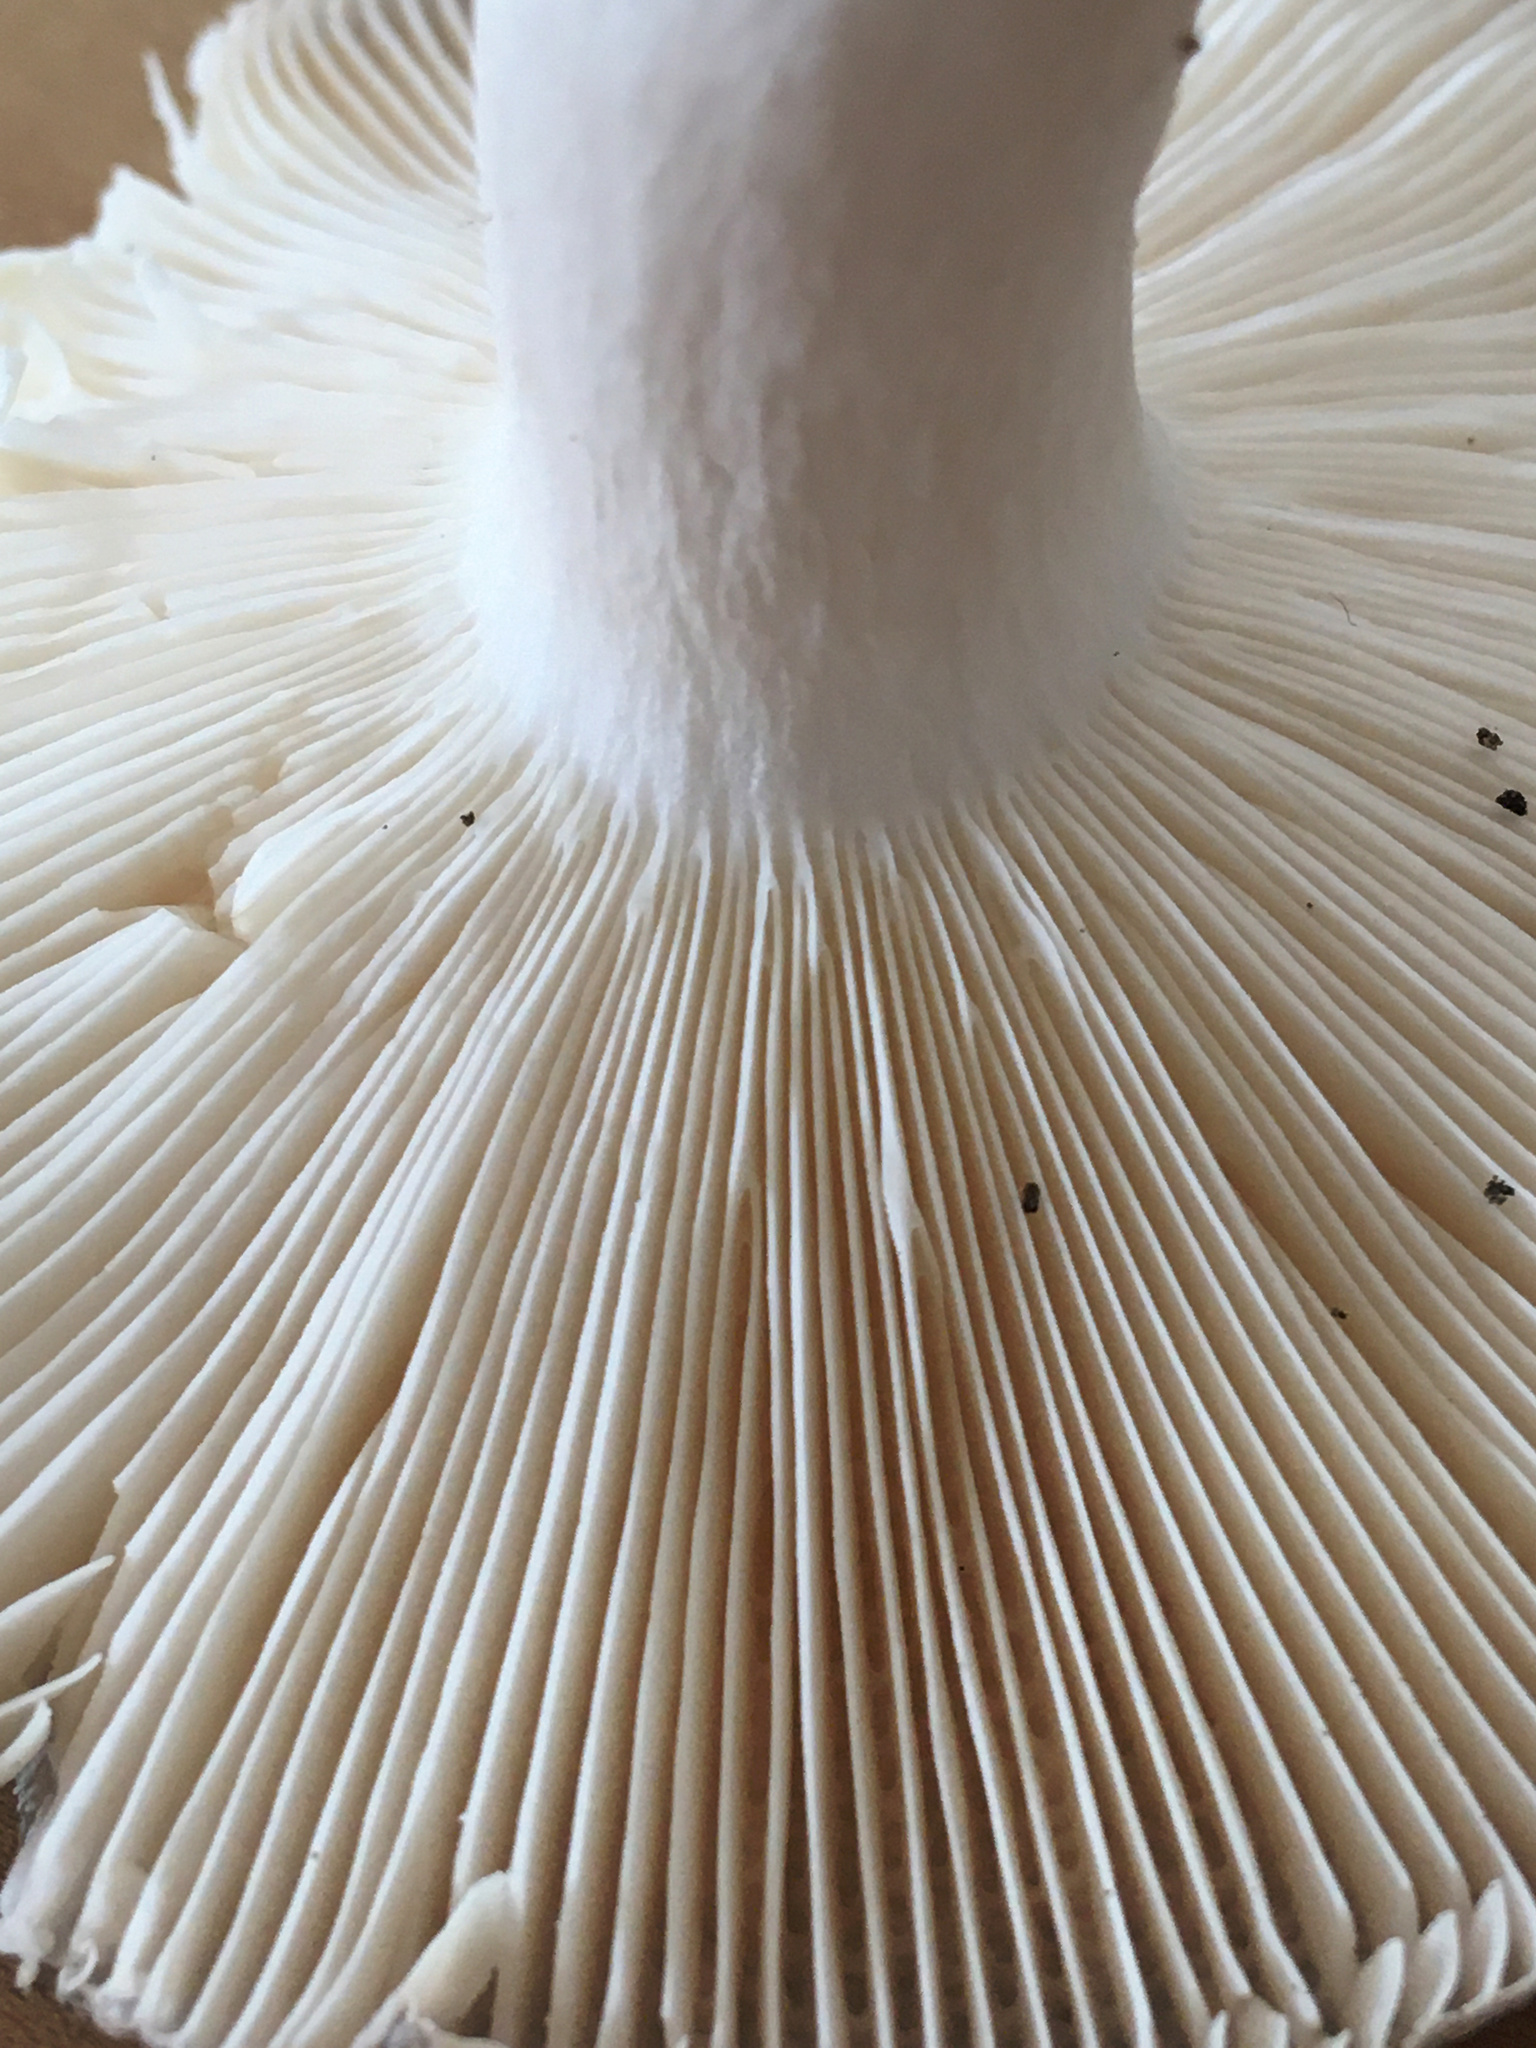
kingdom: Fungi
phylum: Basidiomycota
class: Agaricomycetes
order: Russulales
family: Russulaceae
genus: Russula
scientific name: Russula cyanoxantha
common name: Charcoal burner
